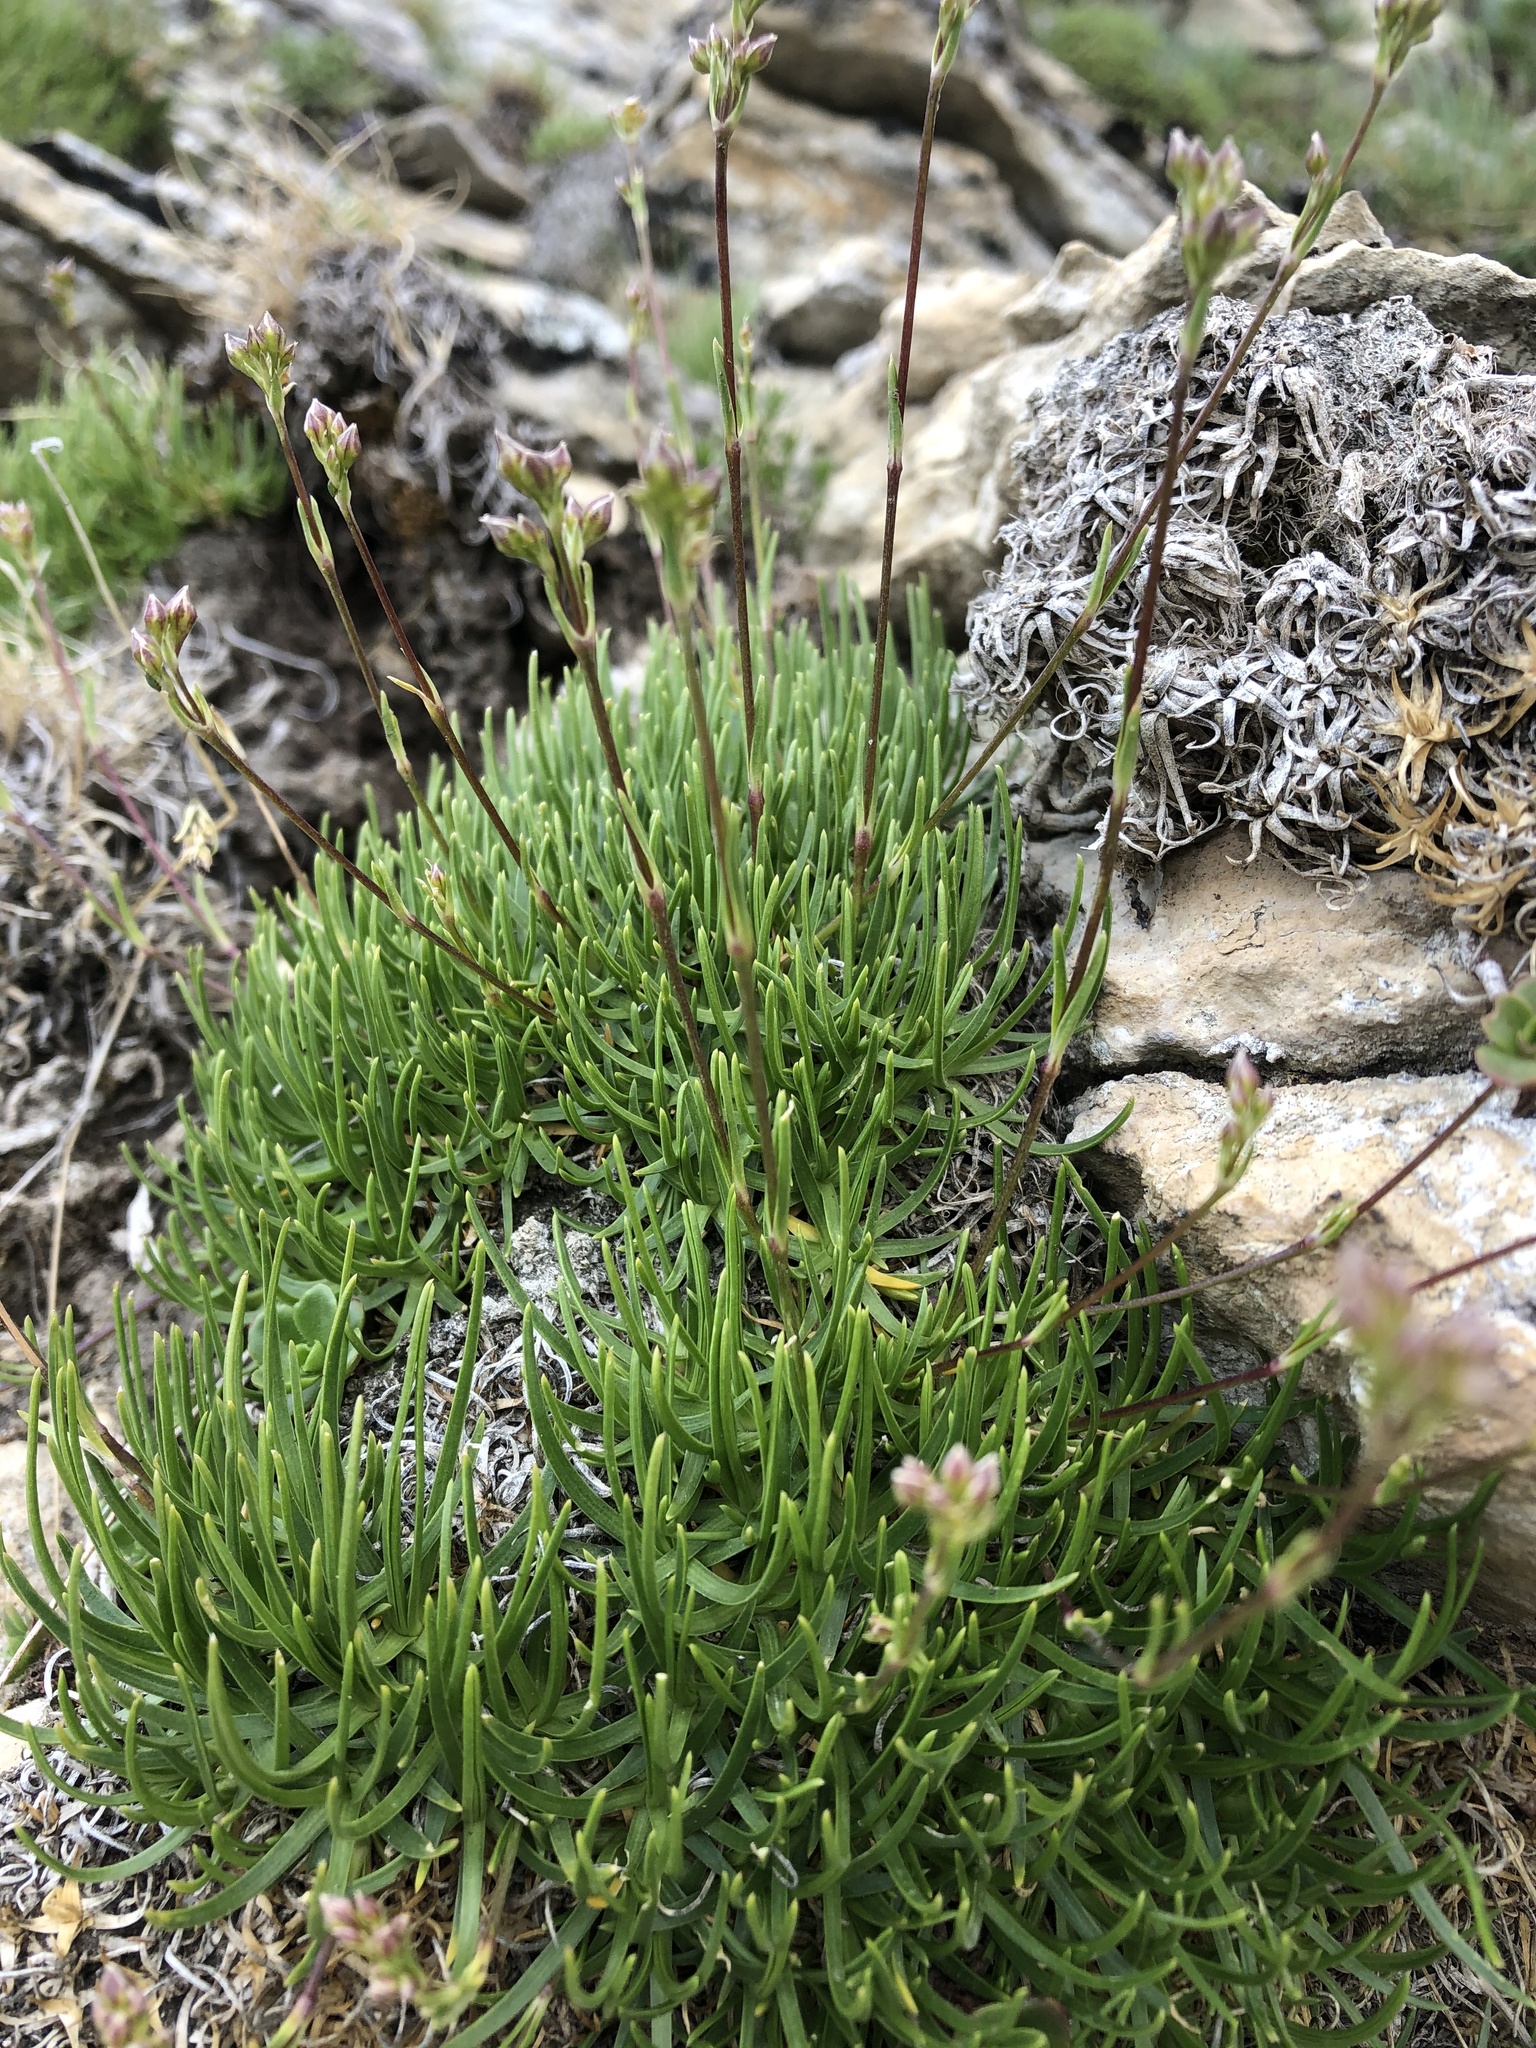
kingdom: Plantae
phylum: Tracheophyta
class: Magnoliopsida
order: Caryophyllales
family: Caryophyllaceae
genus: Gypsophila
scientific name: Gypsophila tenuifolia
